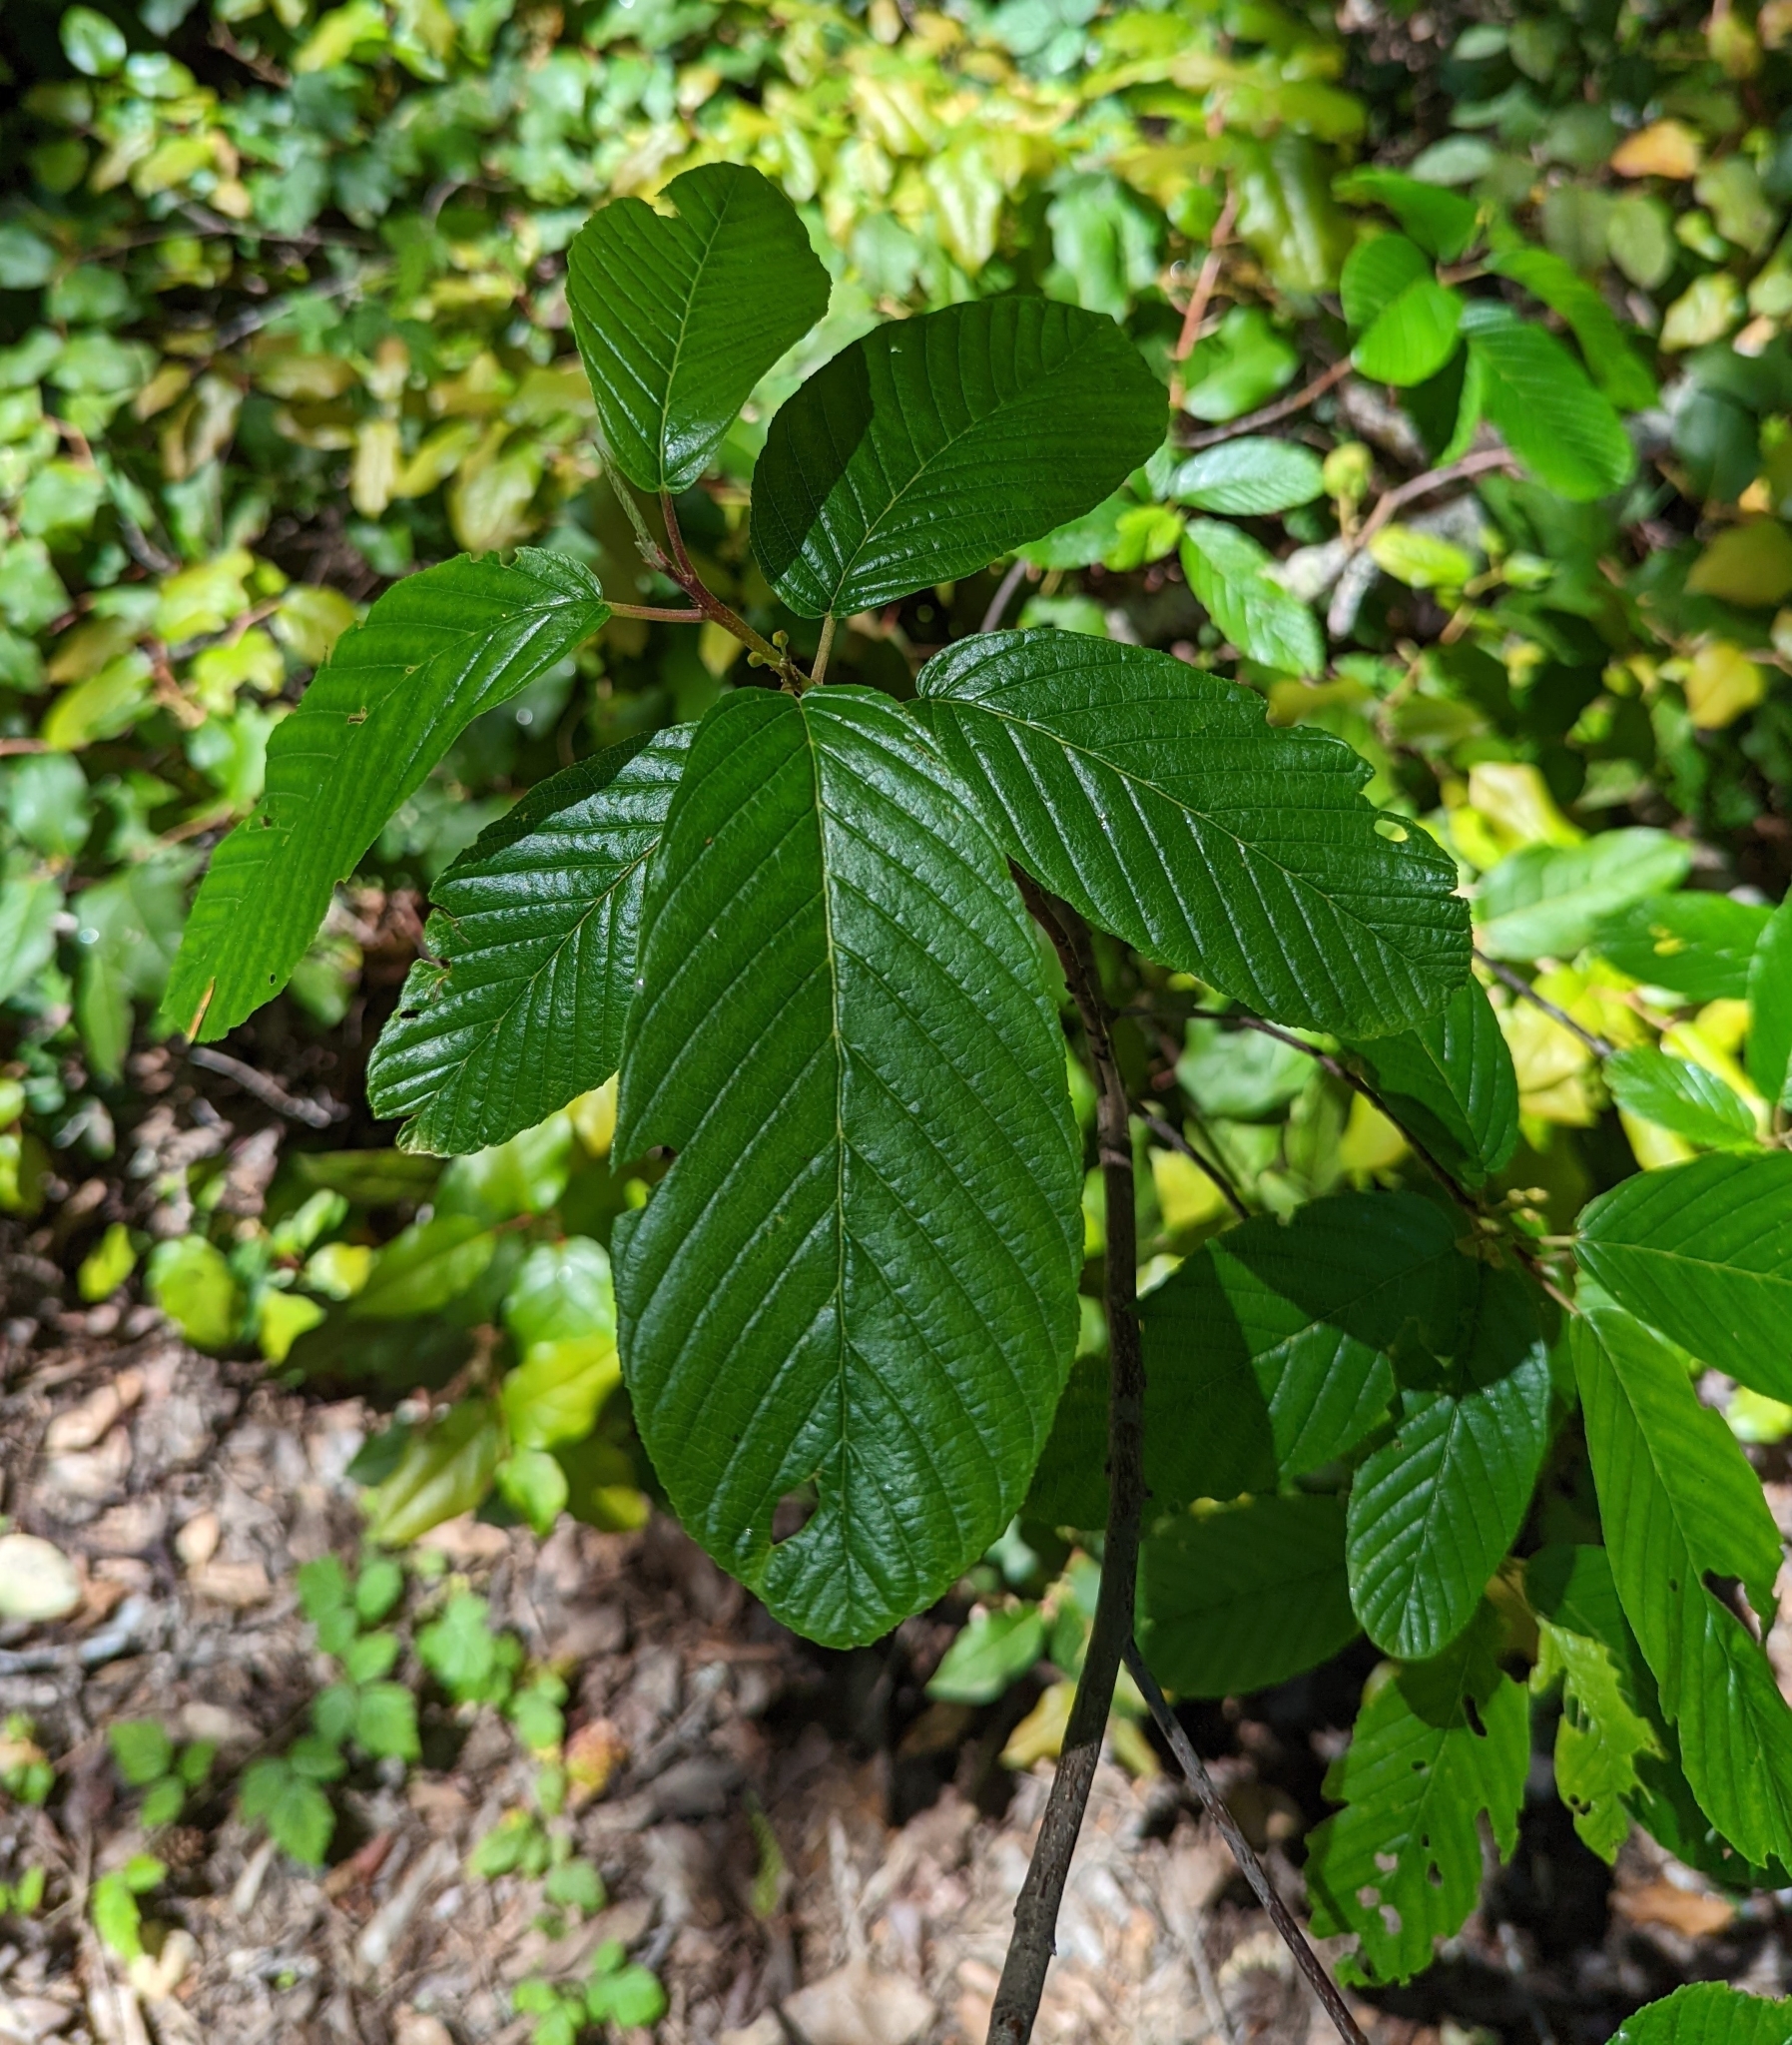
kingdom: Plantae
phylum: Tracheophyta
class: Magnoliopsida
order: Rosales
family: Rhamnaceae
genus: Frangula
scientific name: Frangula purshiana
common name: Cascara buckthorn
